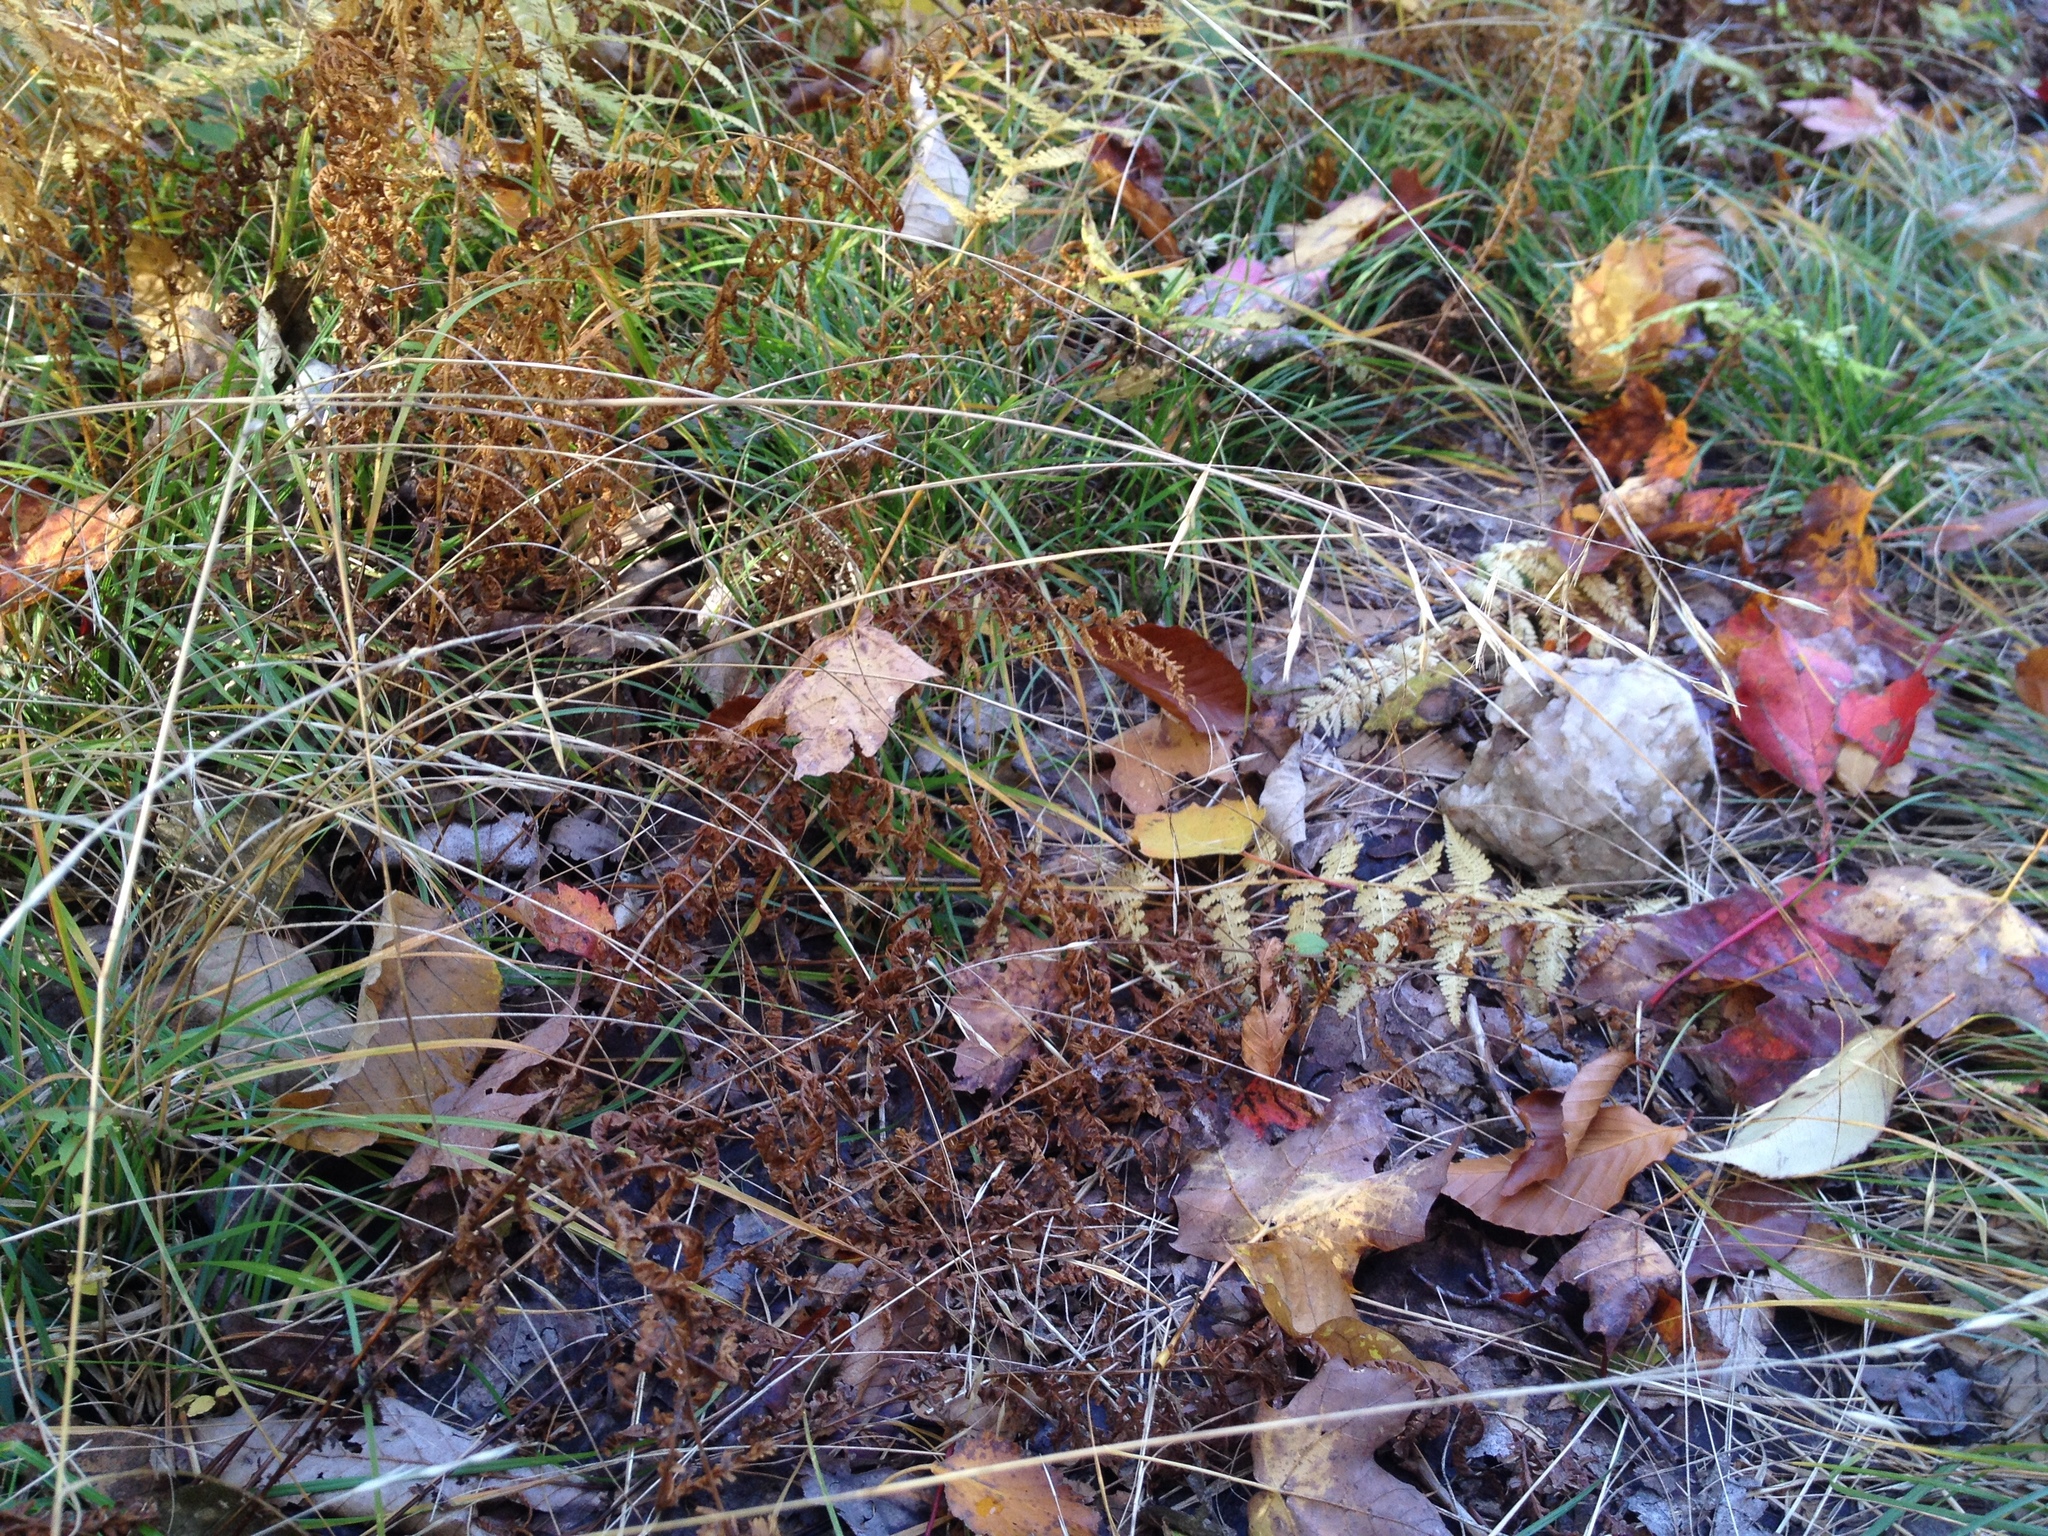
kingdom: Plantae
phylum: Tracheophyta
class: Liliopsida
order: Poales
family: Poaceae
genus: Danthonia
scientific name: Danthonia compressa
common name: Flat-stem oat grass
